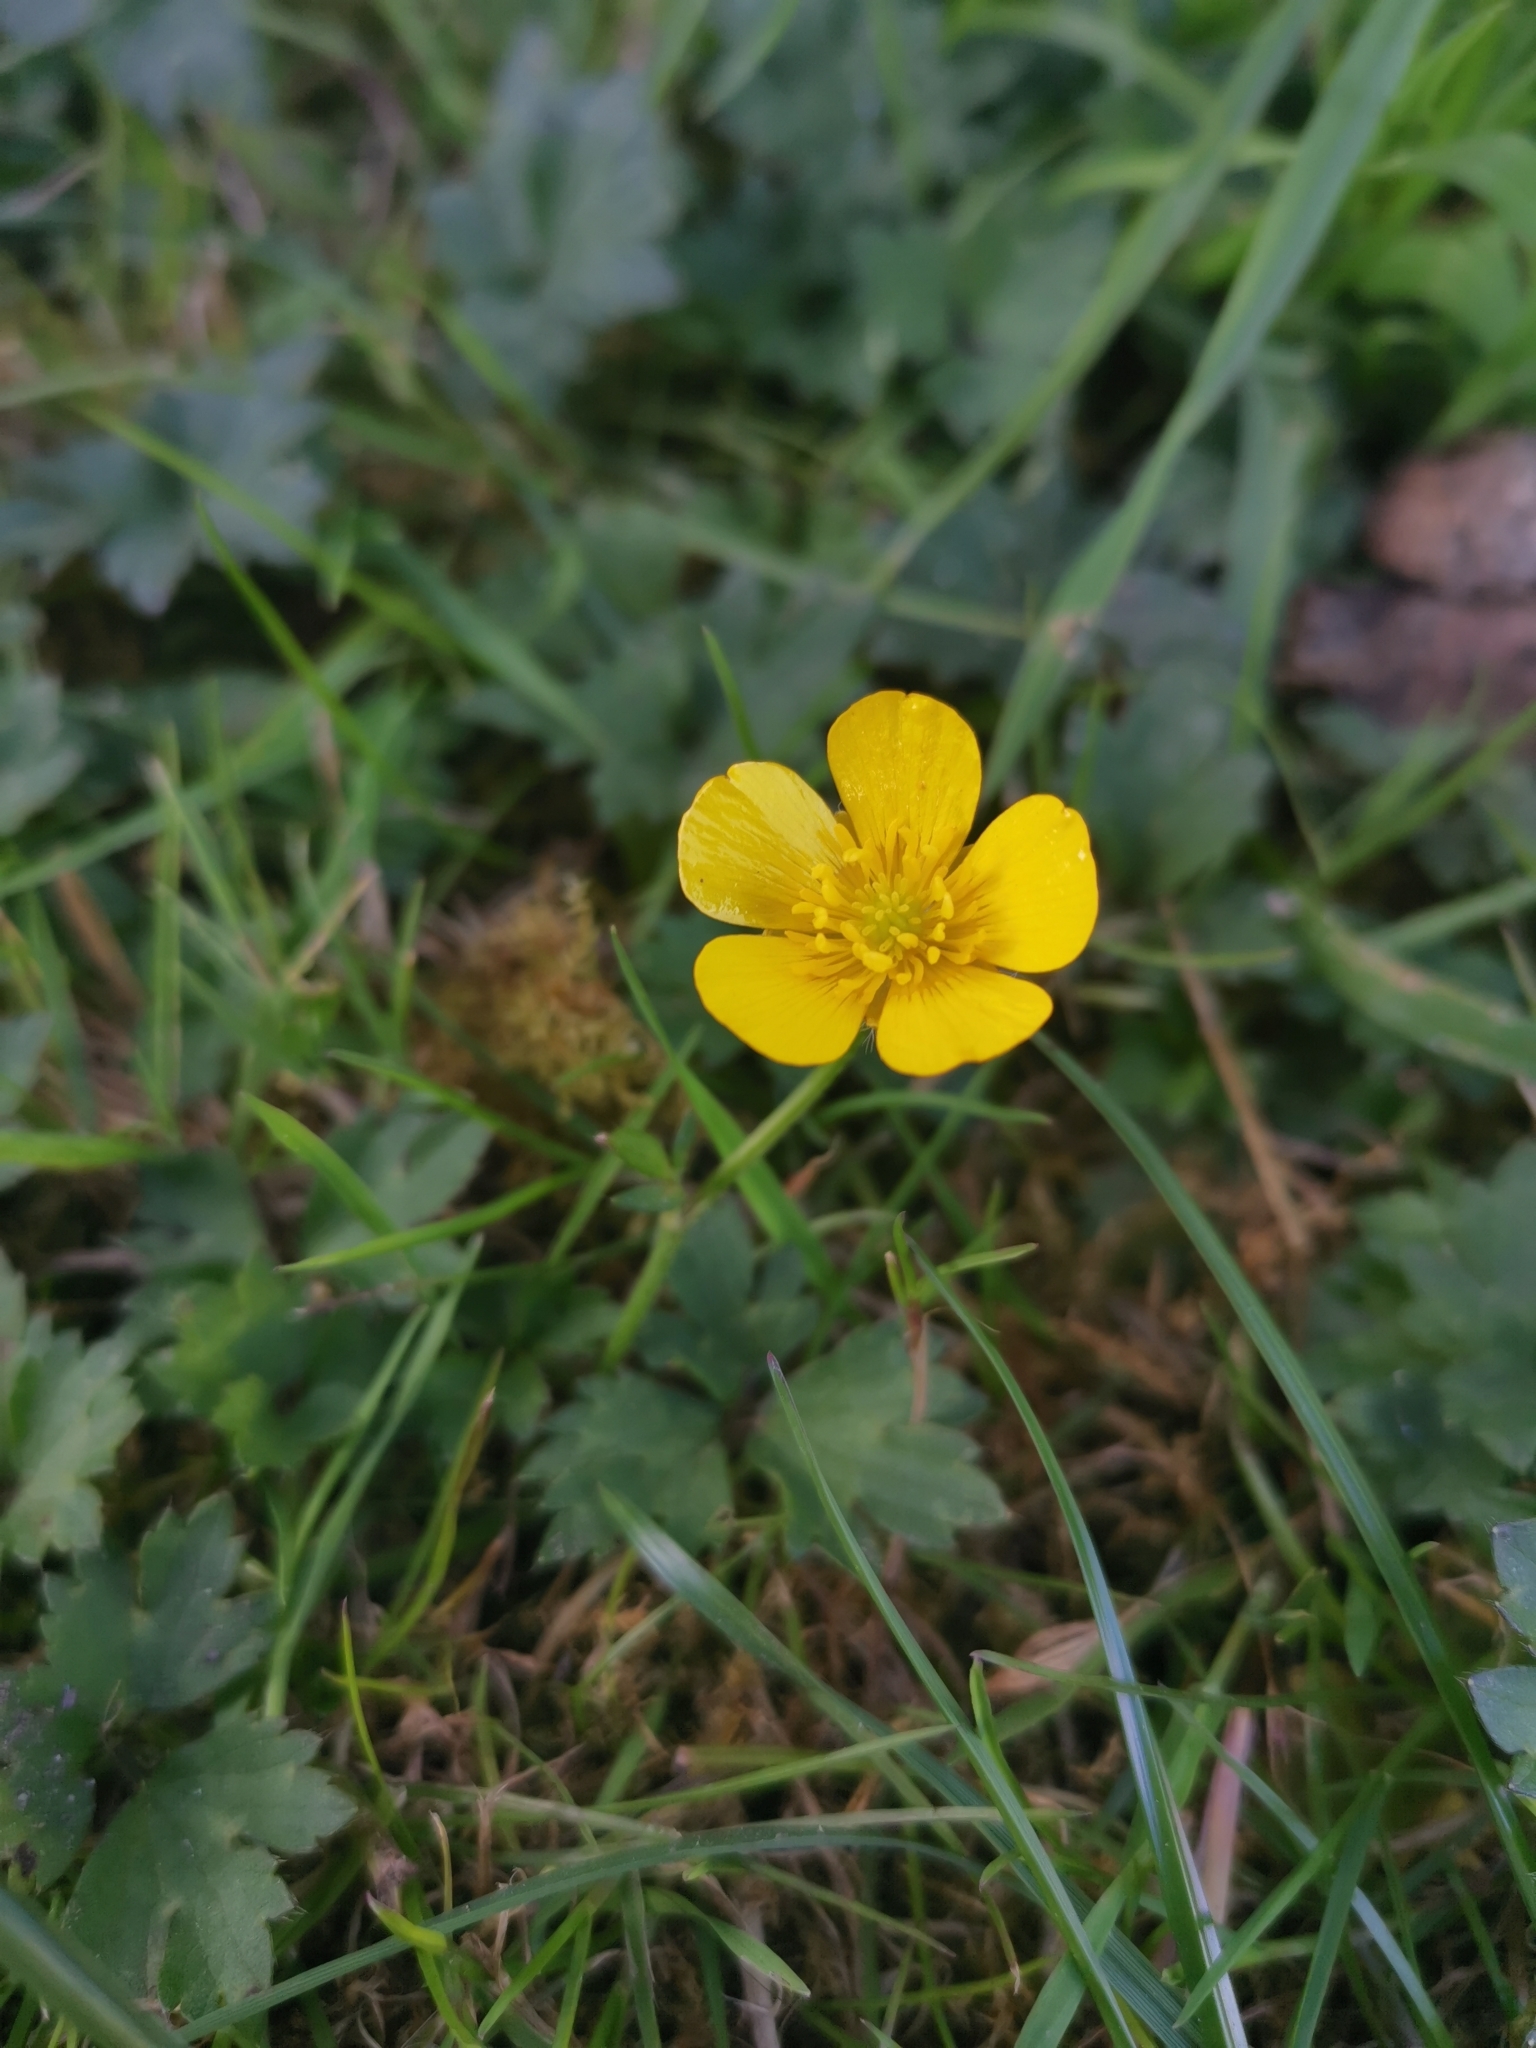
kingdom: Plantae
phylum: Tracheophyta
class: Magnoliopsida
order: Ranunculales
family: Ranunculaceae
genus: Ranunculus
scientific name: Ranunculus repens
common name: Creeping buttercup
